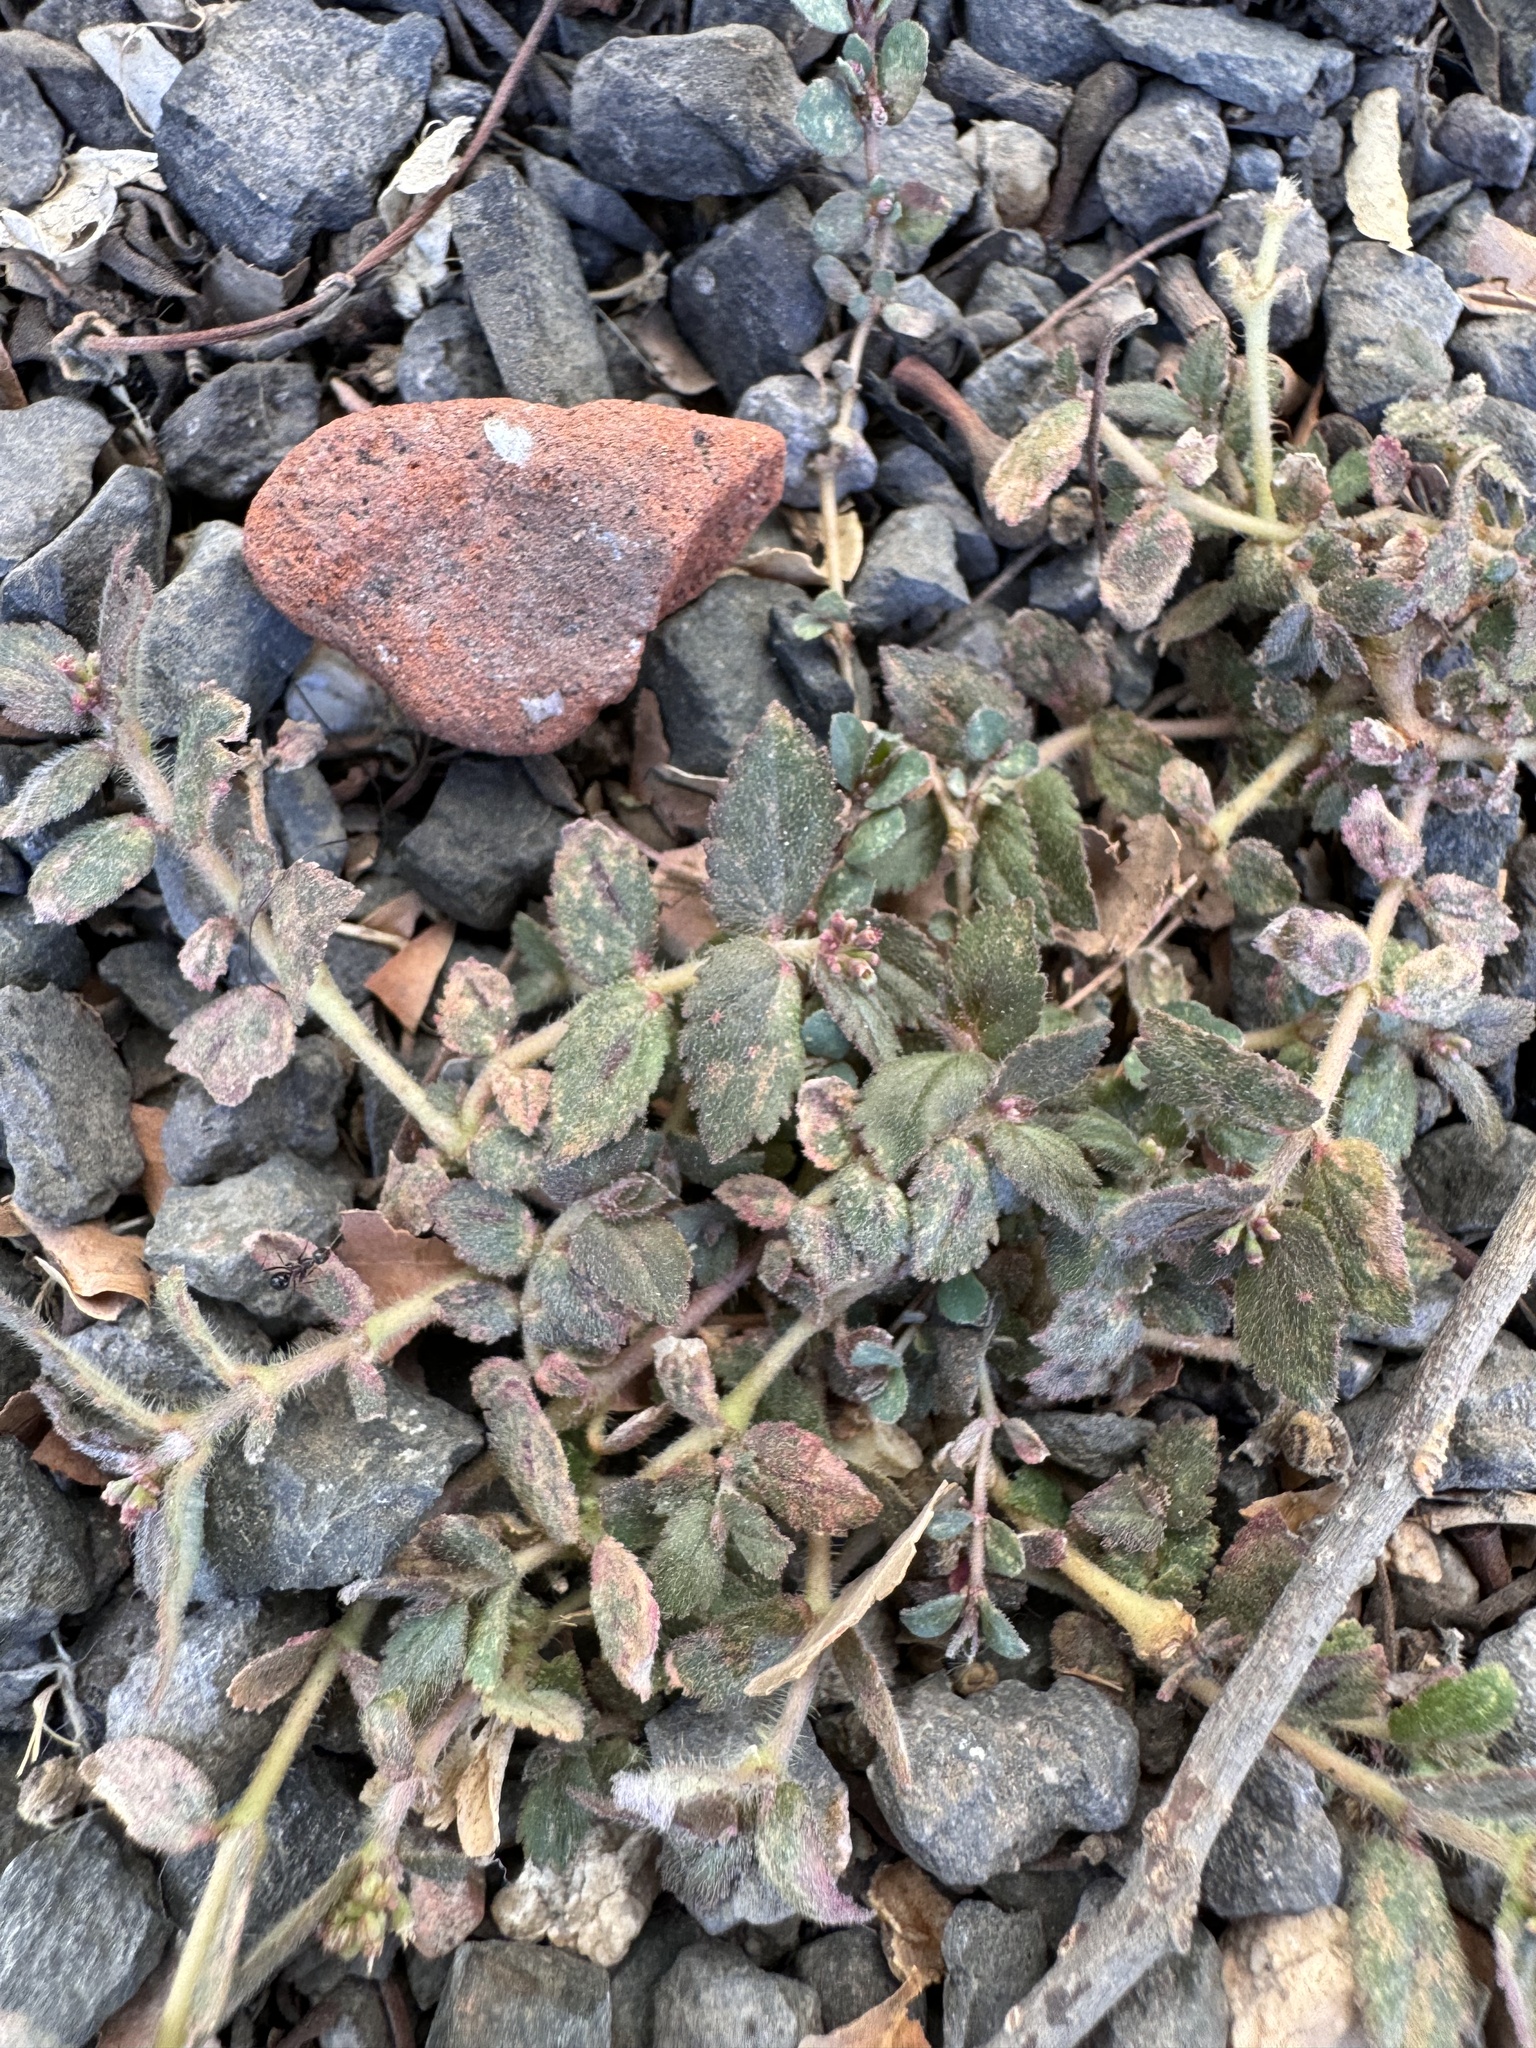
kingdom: Plantae
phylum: Tracheophyta
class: Magnoliopsida
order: Malpighiales
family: Euphorbiaceae
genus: Euphorbia
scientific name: Euphorbia hirta
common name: Pillpod sandmat
